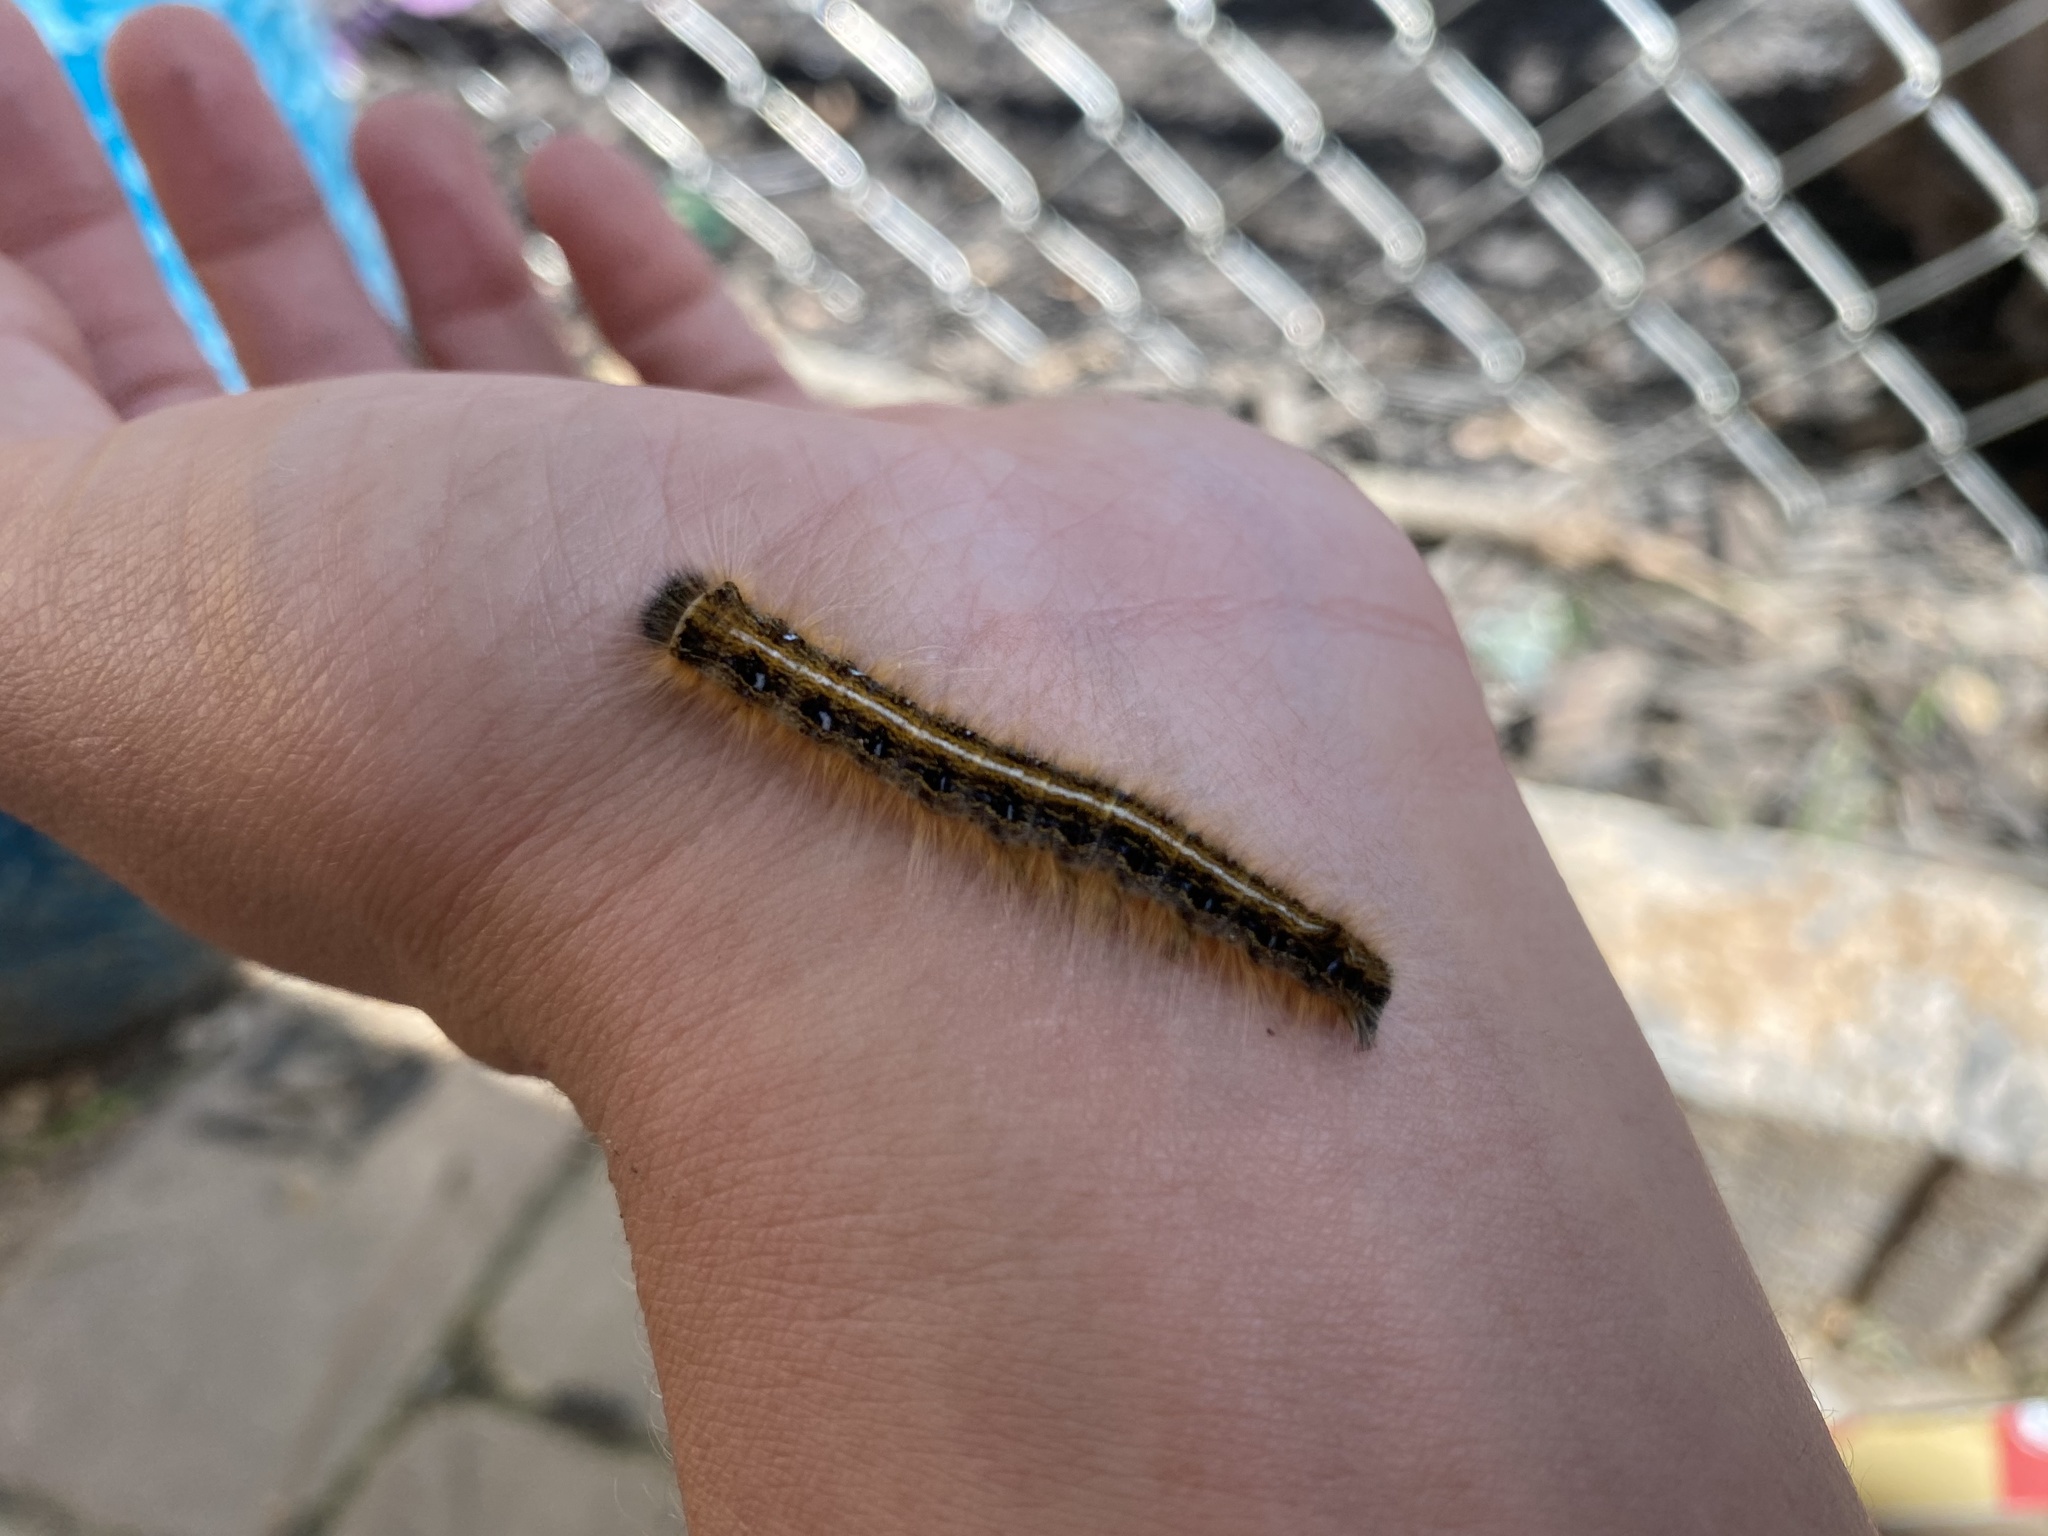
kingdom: Animalia
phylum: Arthropoda
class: Insecta
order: Lepidoptera
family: Lasiocampidae
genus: Malacosoma
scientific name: Malacosoma americana
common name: Eastern tent caterpillar moth
